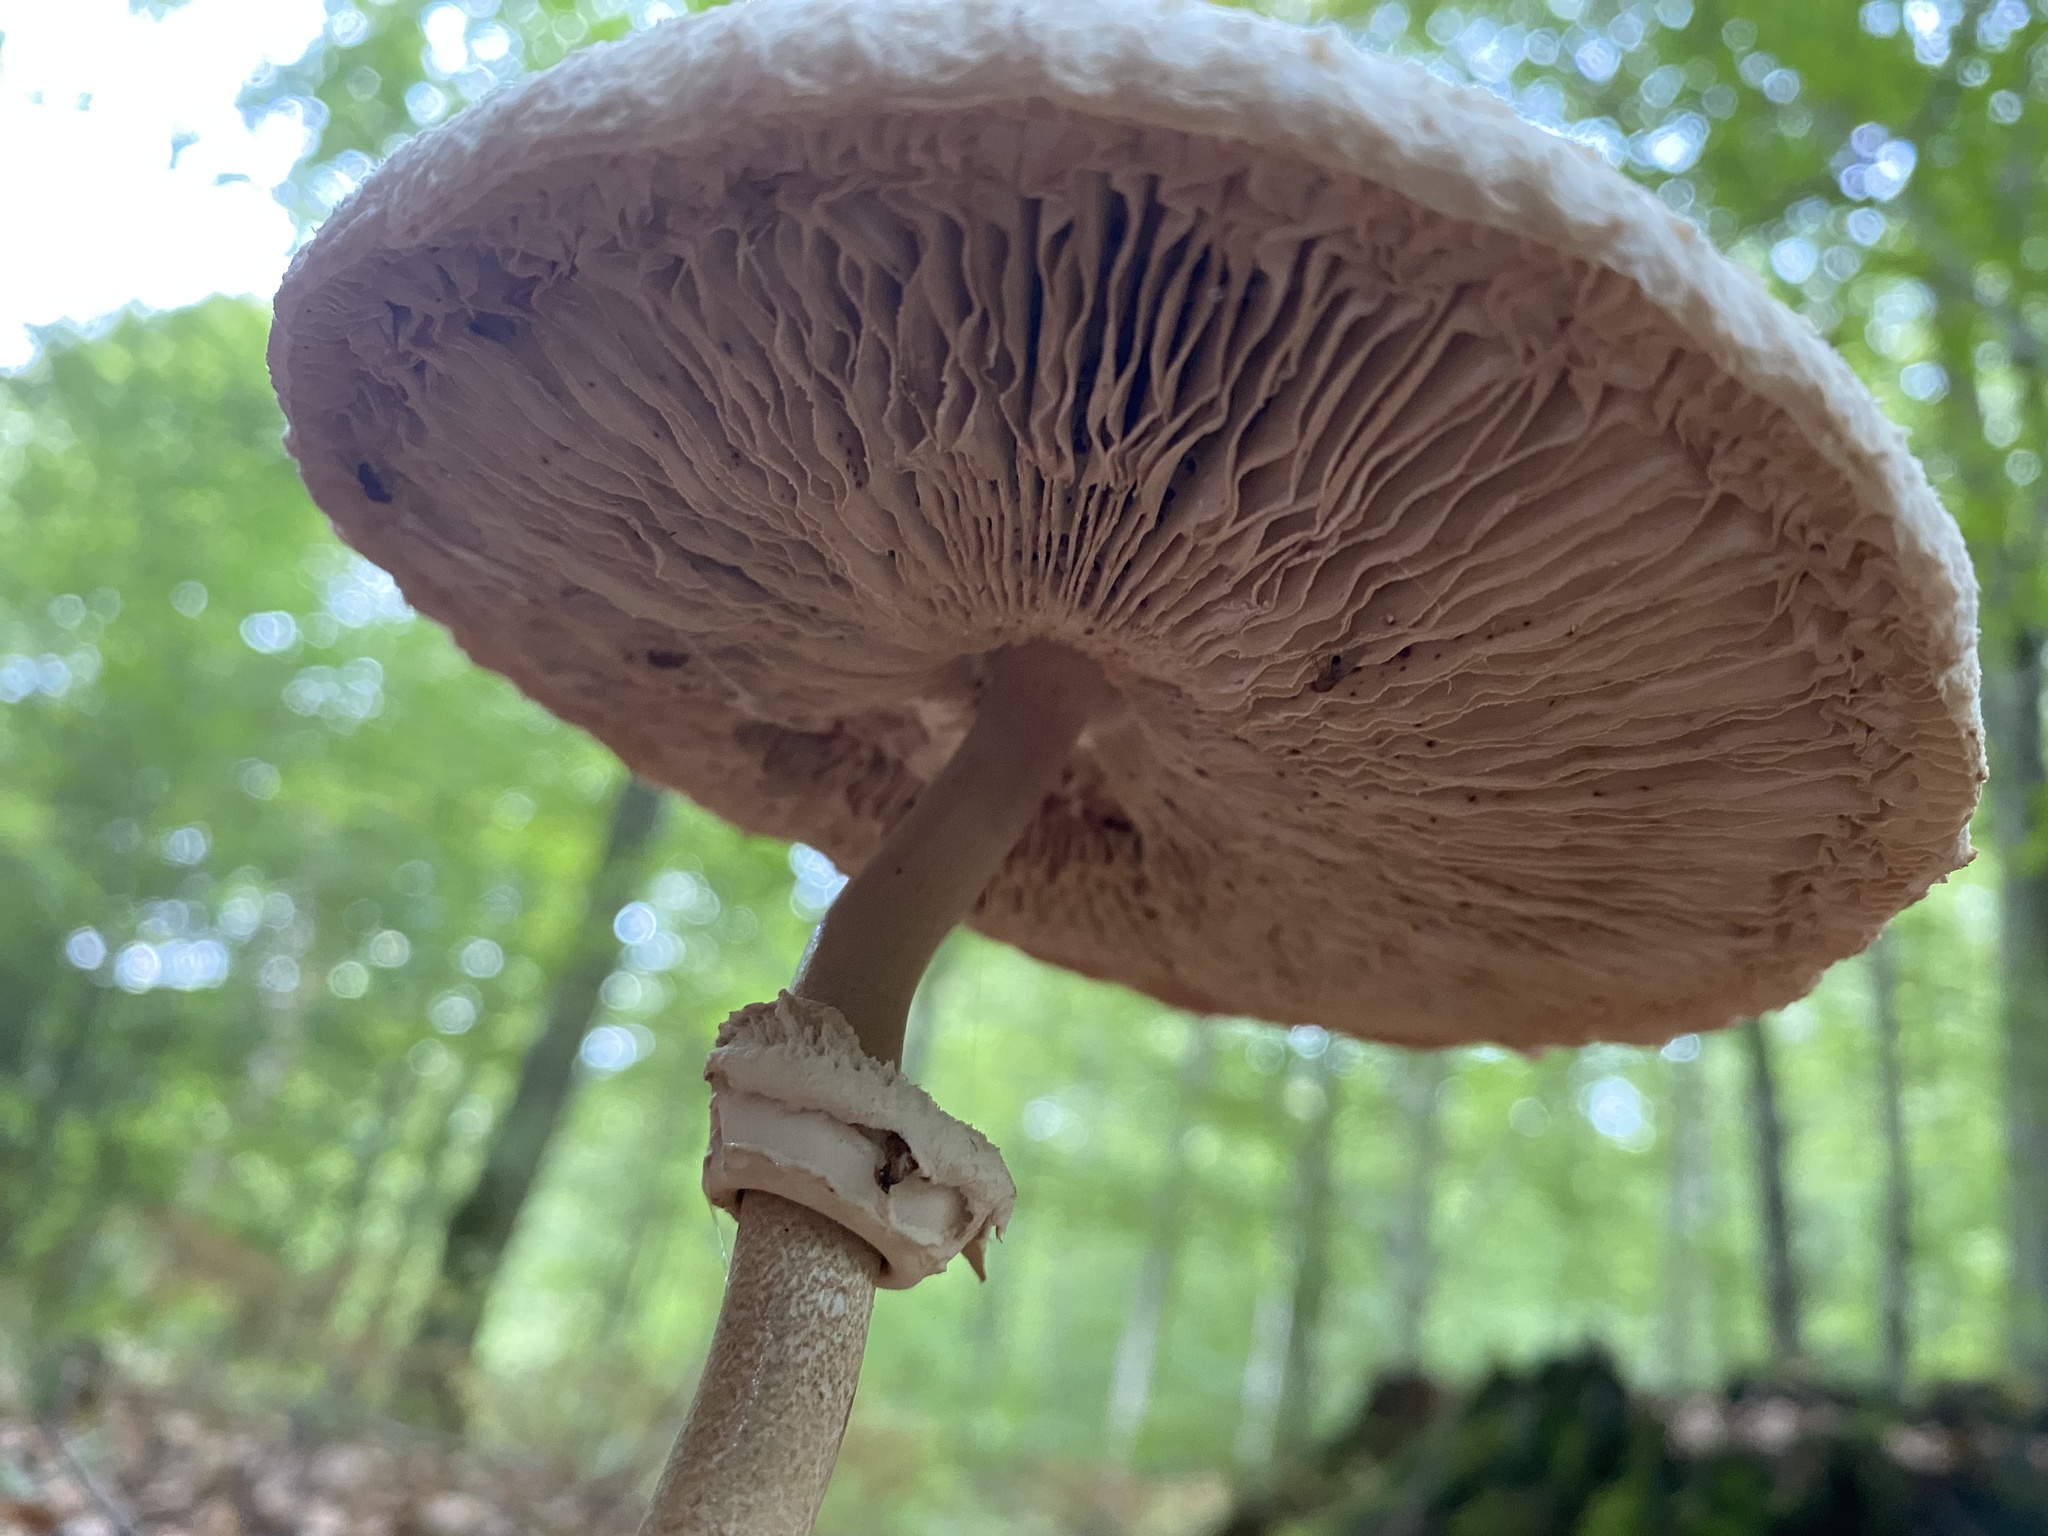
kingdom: Fungi
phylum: Basidiomycota
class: Agaricomycetes
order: Agaricales
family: Agaricaceae
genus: Macrolepiota
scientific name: Macrolepiota procera
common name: Parasol
